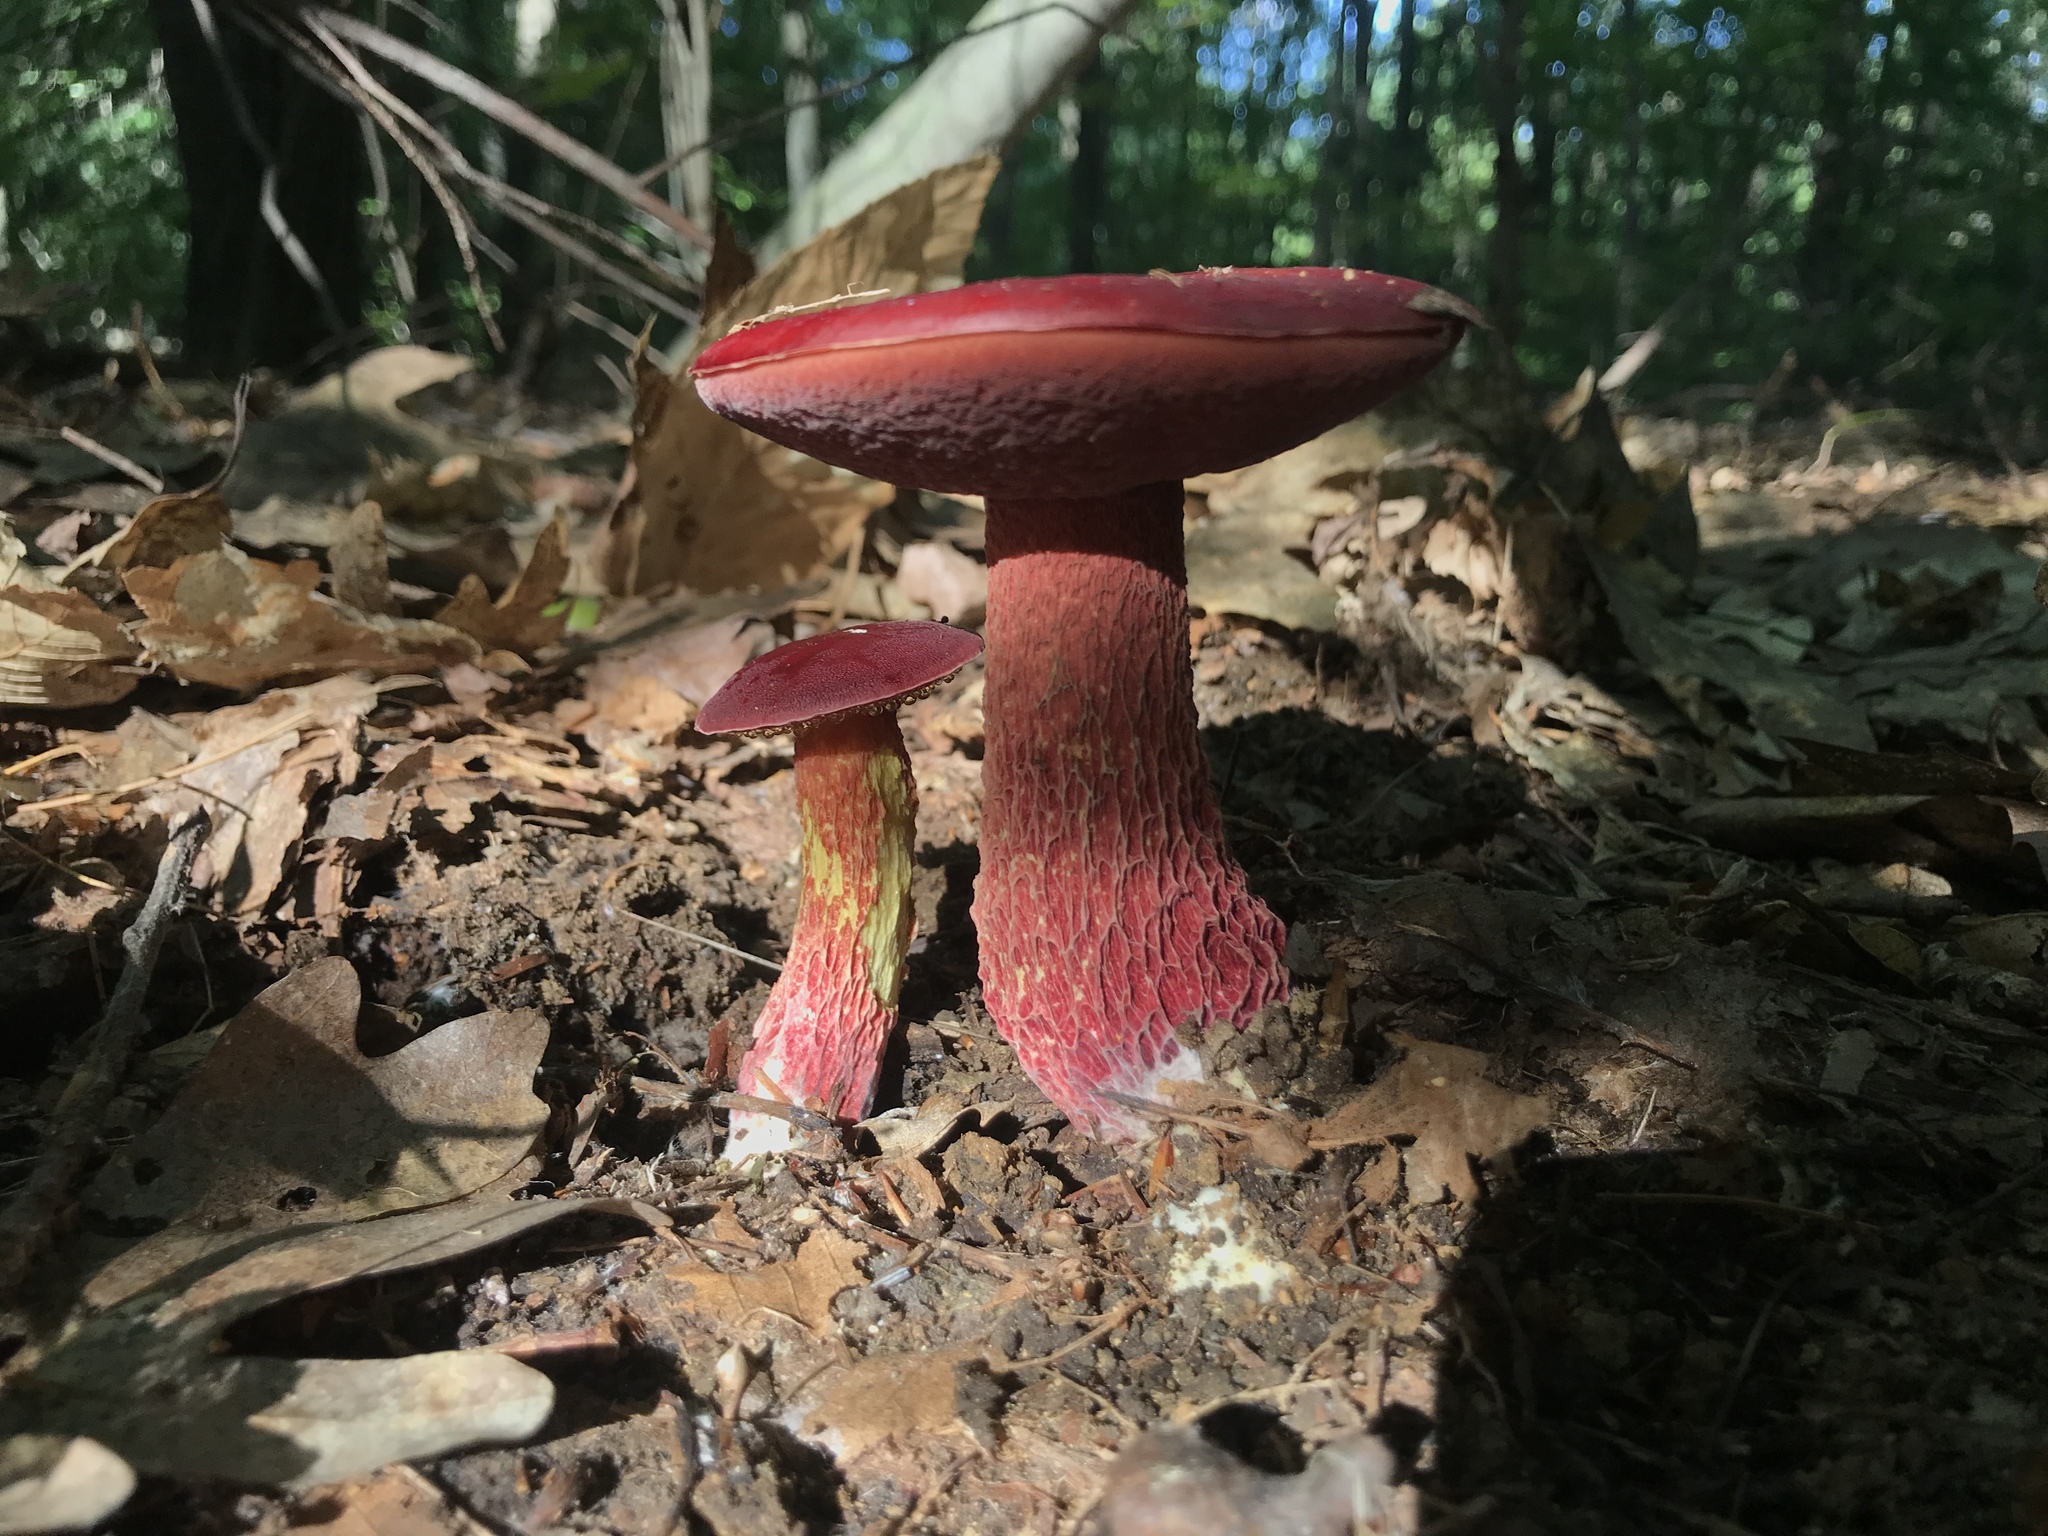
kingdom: Fungi
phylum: Basidiomycota
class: Agaricomycetes
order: Boletales
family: Boletaceae
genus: Butyriboletus
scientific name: Butyriboletus frostii
